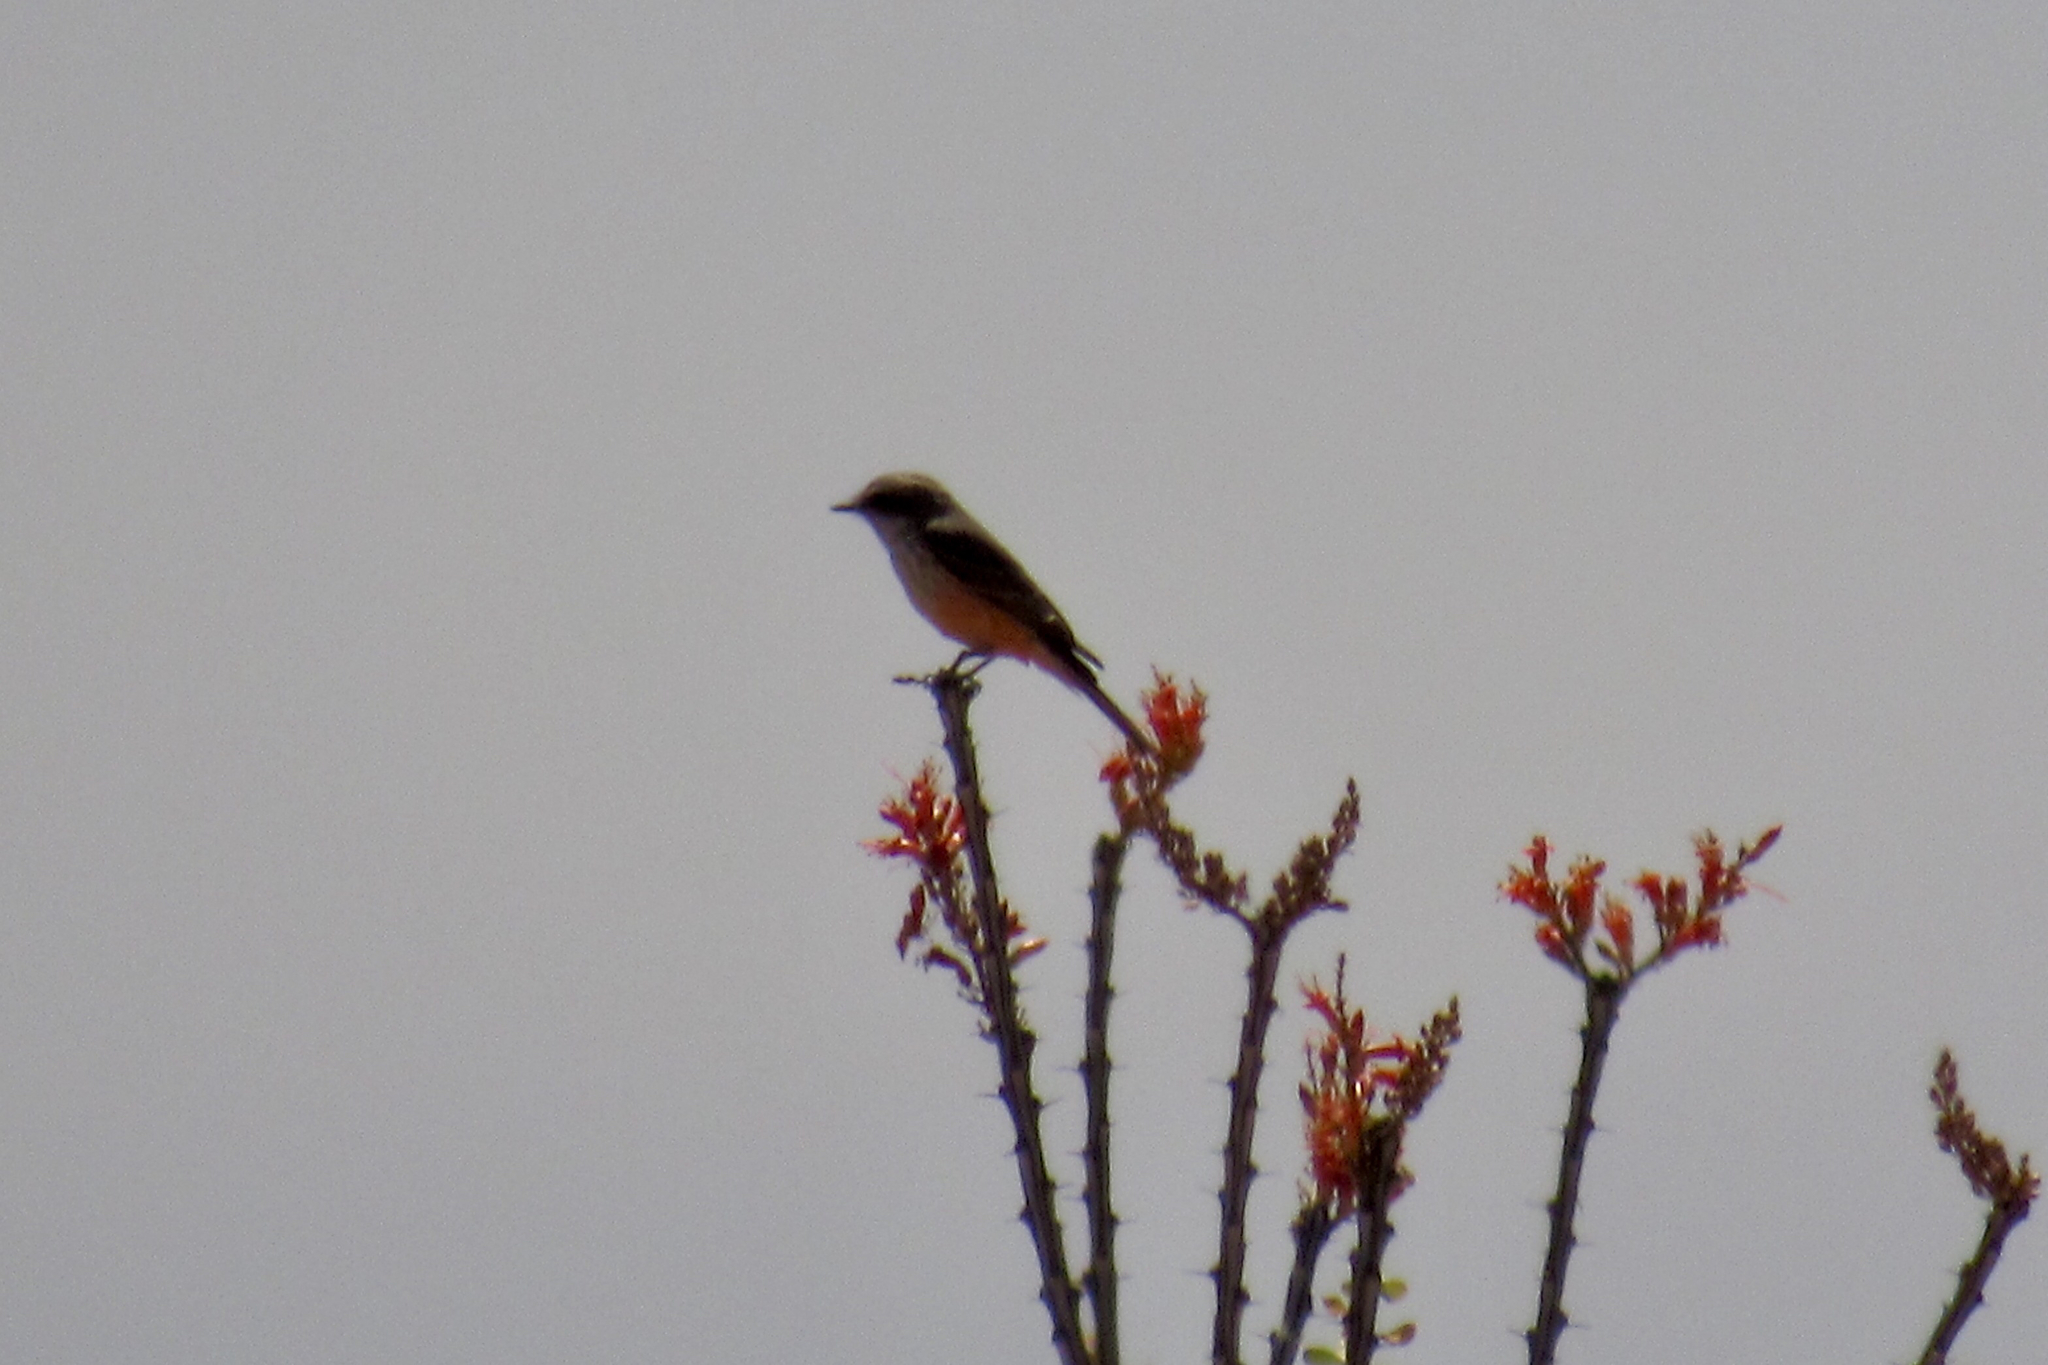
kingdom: Animalia
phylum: Chordata
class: Aves
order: Passeriformes
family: Tyrannidae
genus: Pyrocephalus
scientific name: Pyrocephalus rubinus
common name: Vermilion flycatcher
